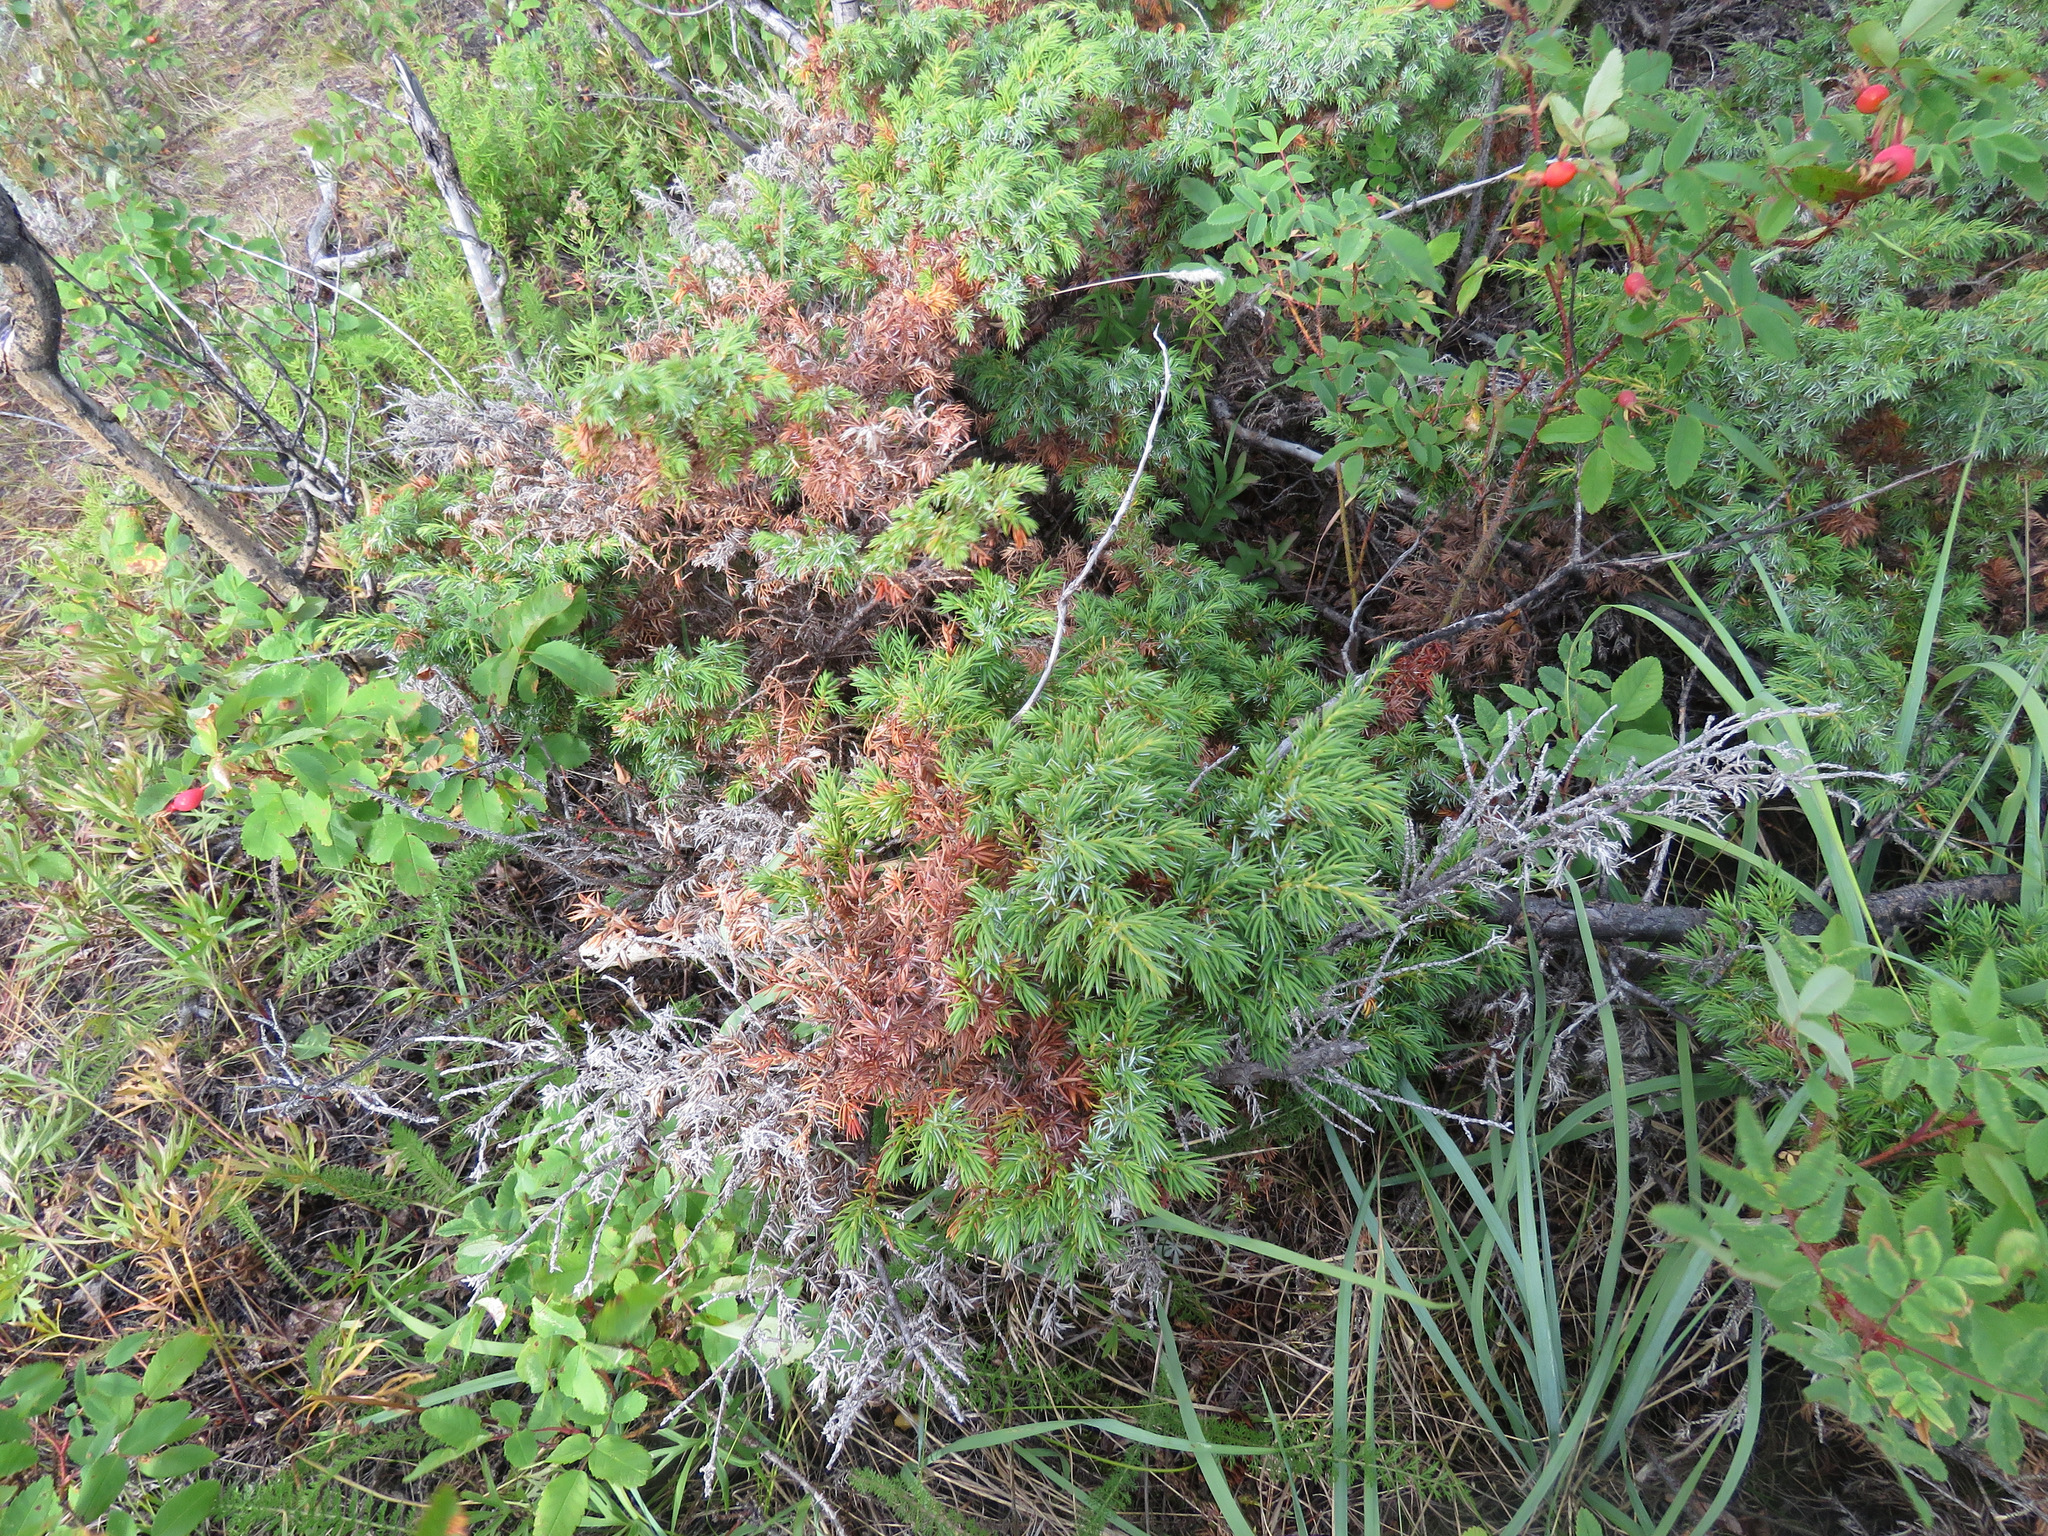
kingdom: Plantae
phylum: Tracheophyta
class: Pinopsida
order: Pinales
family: Cupressaceae
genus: Juniperus
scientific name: Juniperus communis
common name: Common juniper
